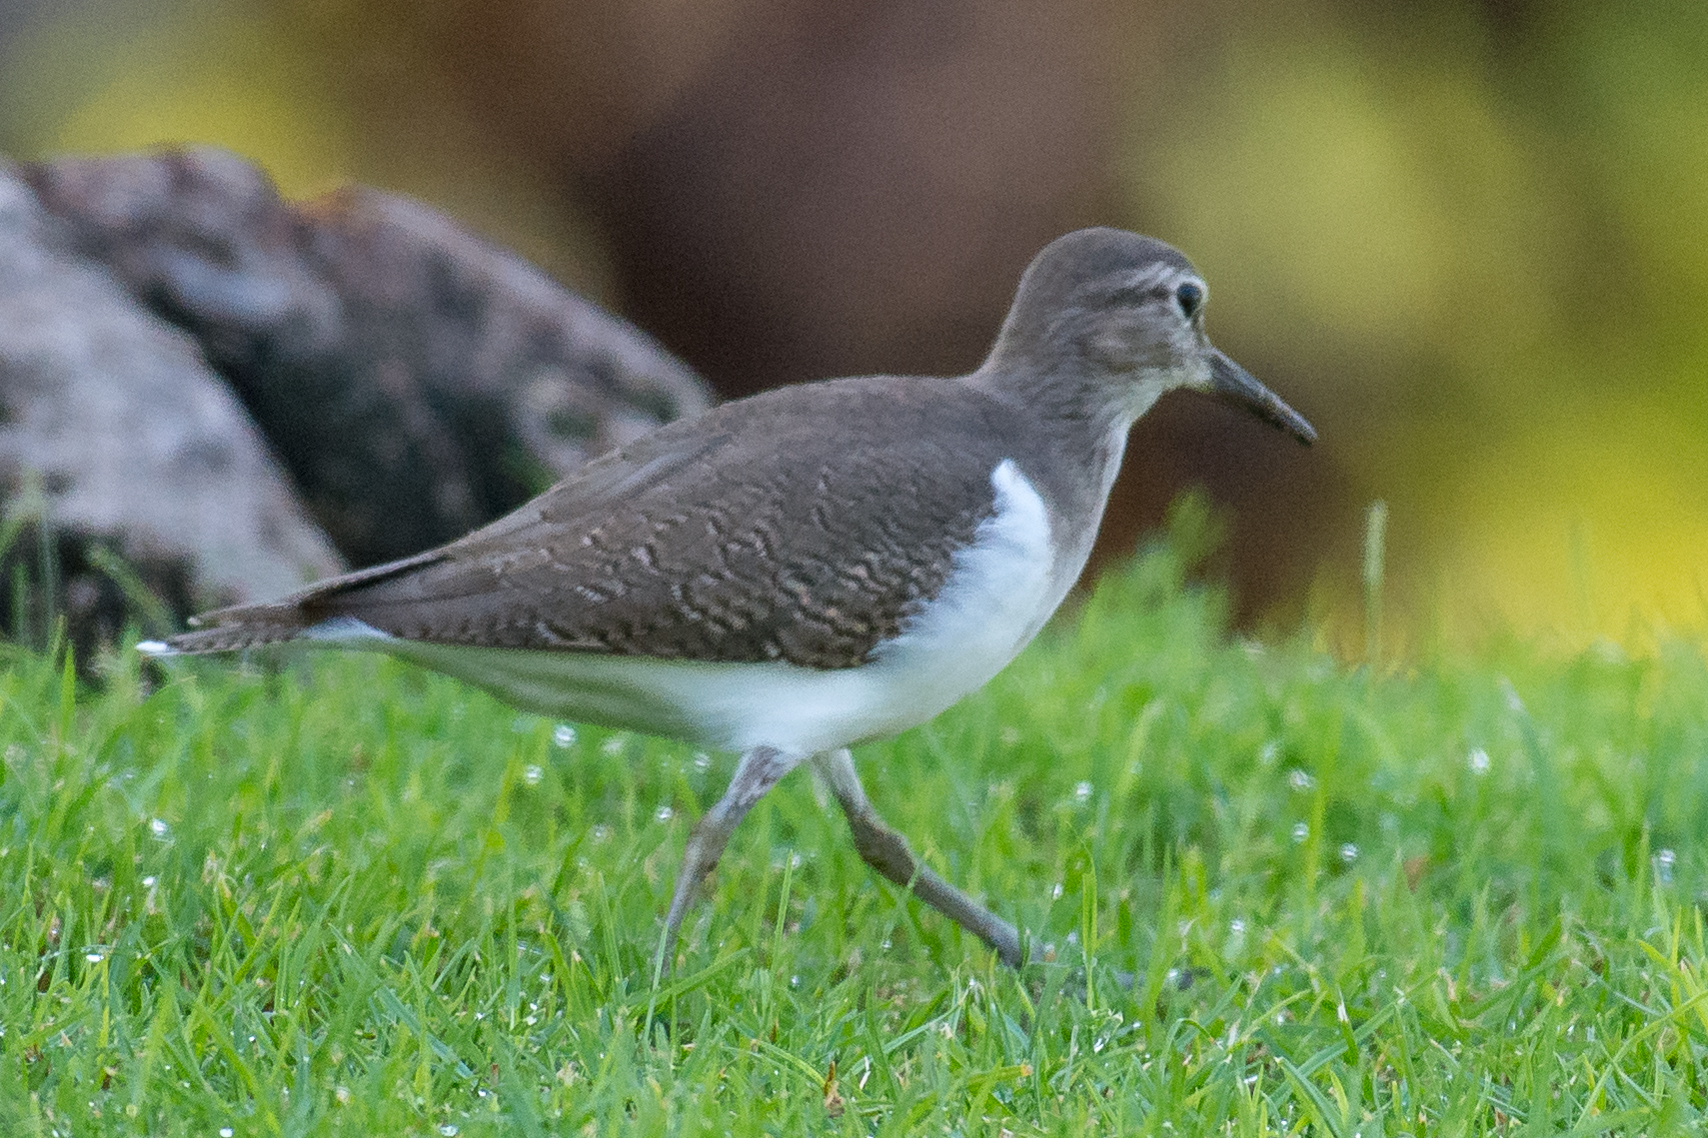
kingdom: Animalia
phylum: Chordata
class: Aves
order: Charadriiformes
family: Scolopacidae
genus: Actitis
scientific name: Actitis hypoleucos
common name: Common sandpiper
